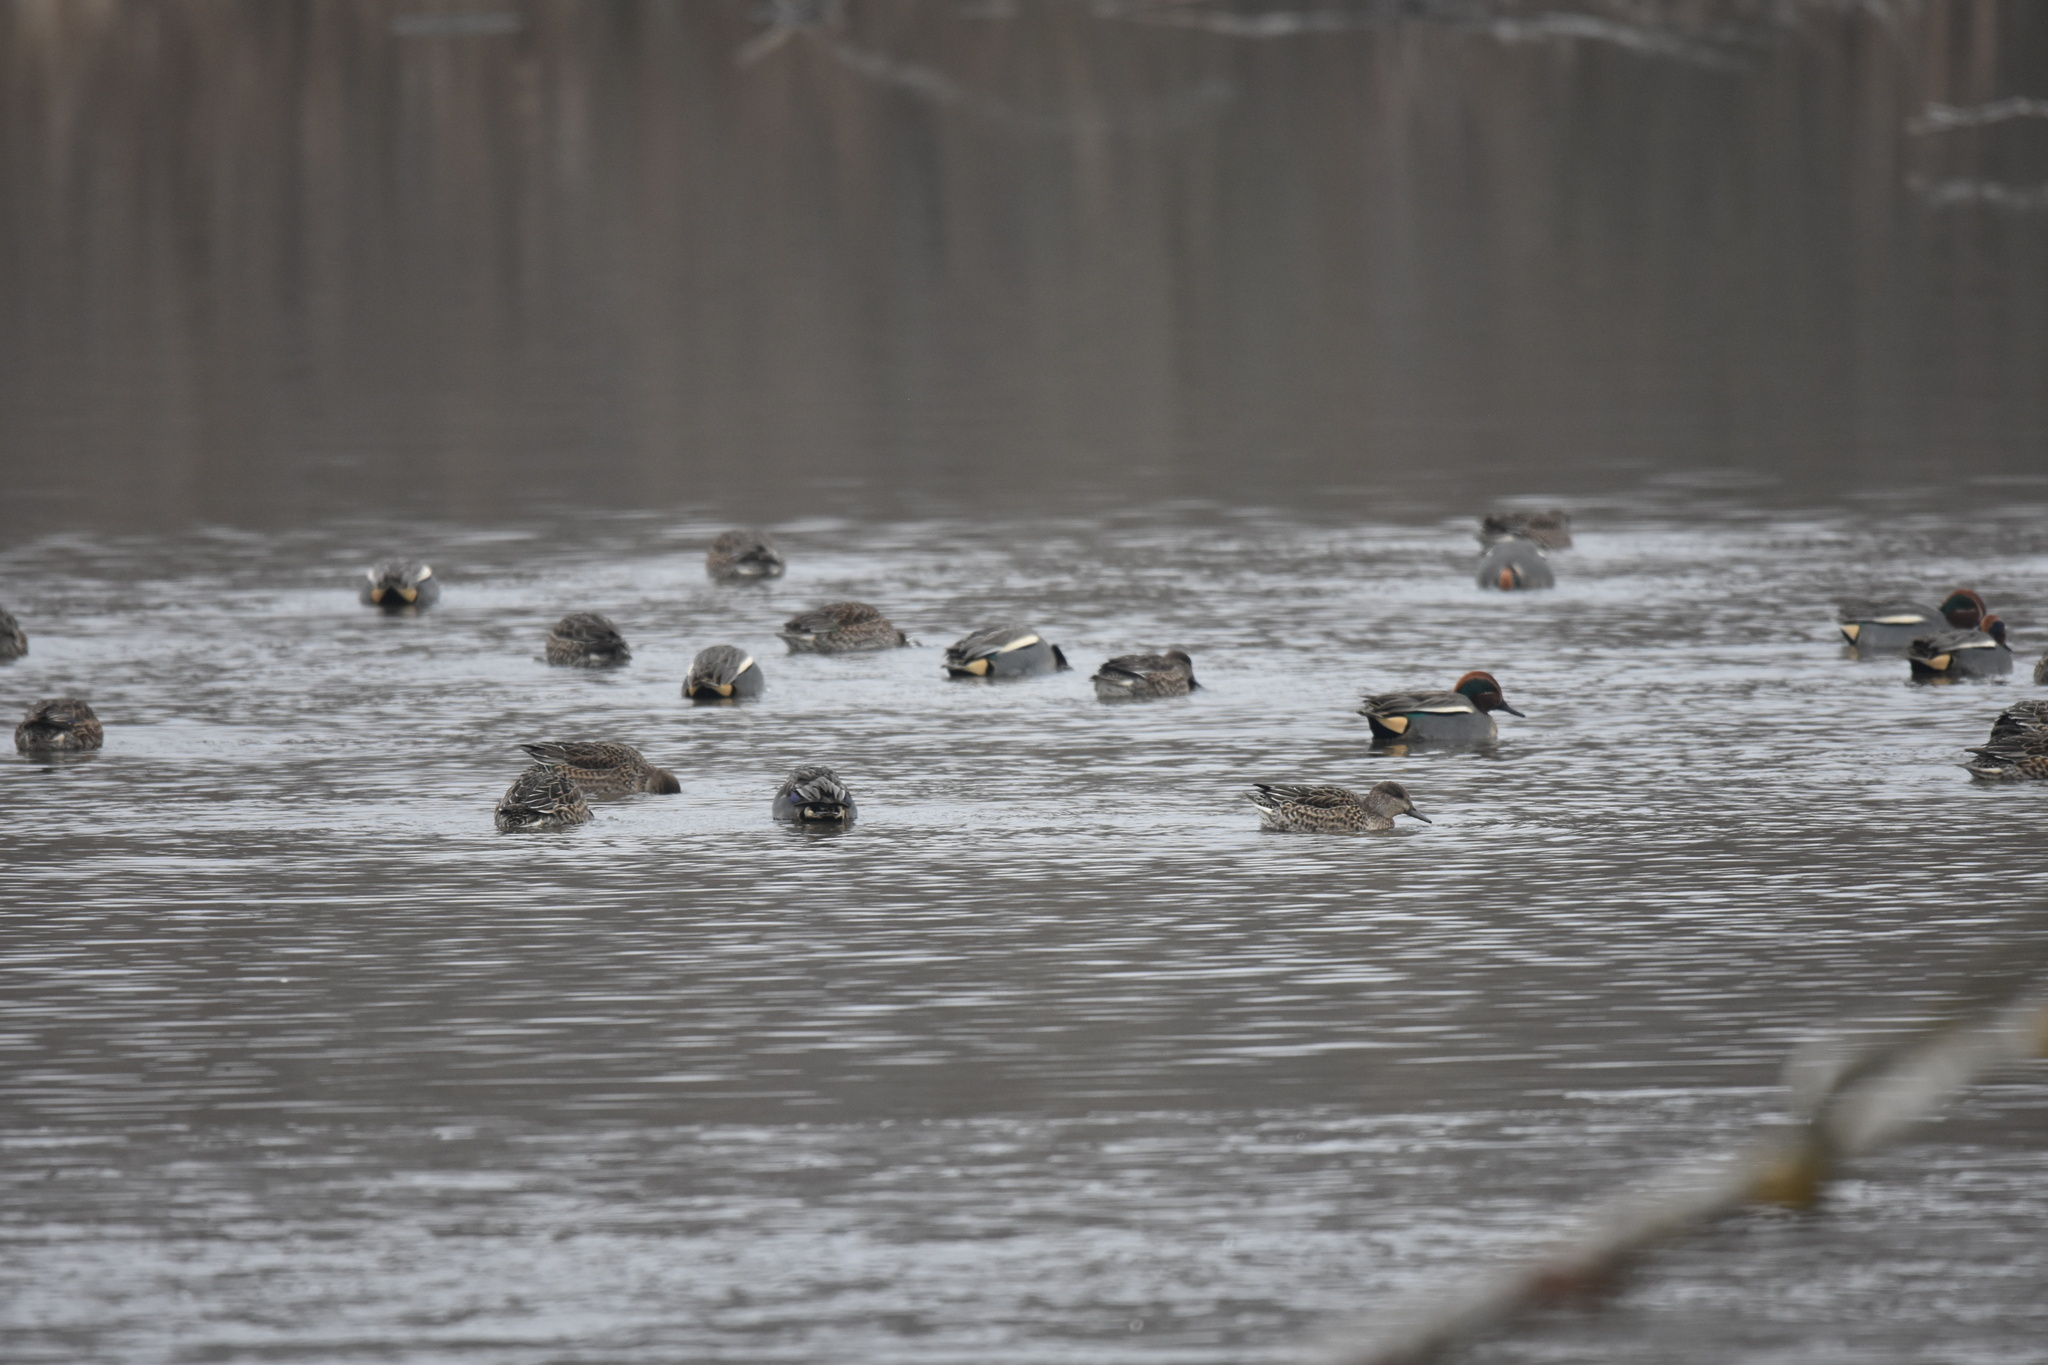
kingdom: Animalia
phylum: Chordata
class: Aves
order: Anseriformes
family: Anatidae
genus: Anas
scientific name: Anas crecca
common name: Eurasian teal
